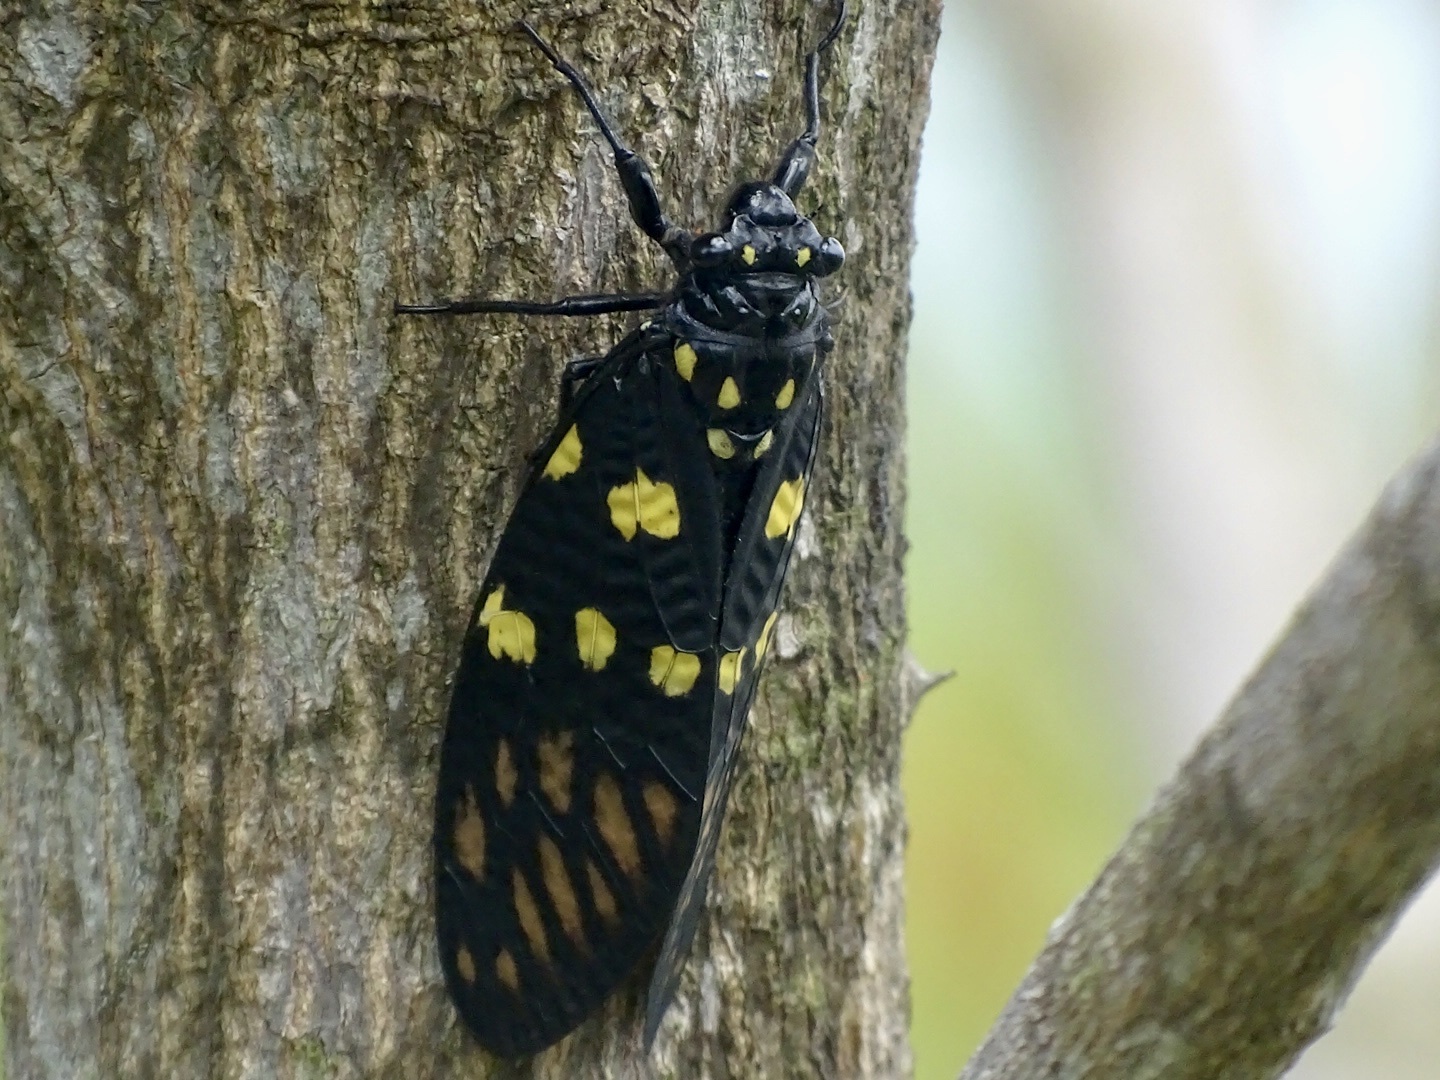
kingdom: Animalia
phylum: Arthropoda
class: Insecta
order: Hemiptera
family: Cicadidae
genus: Gaeana
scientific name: Gaeana maculata
